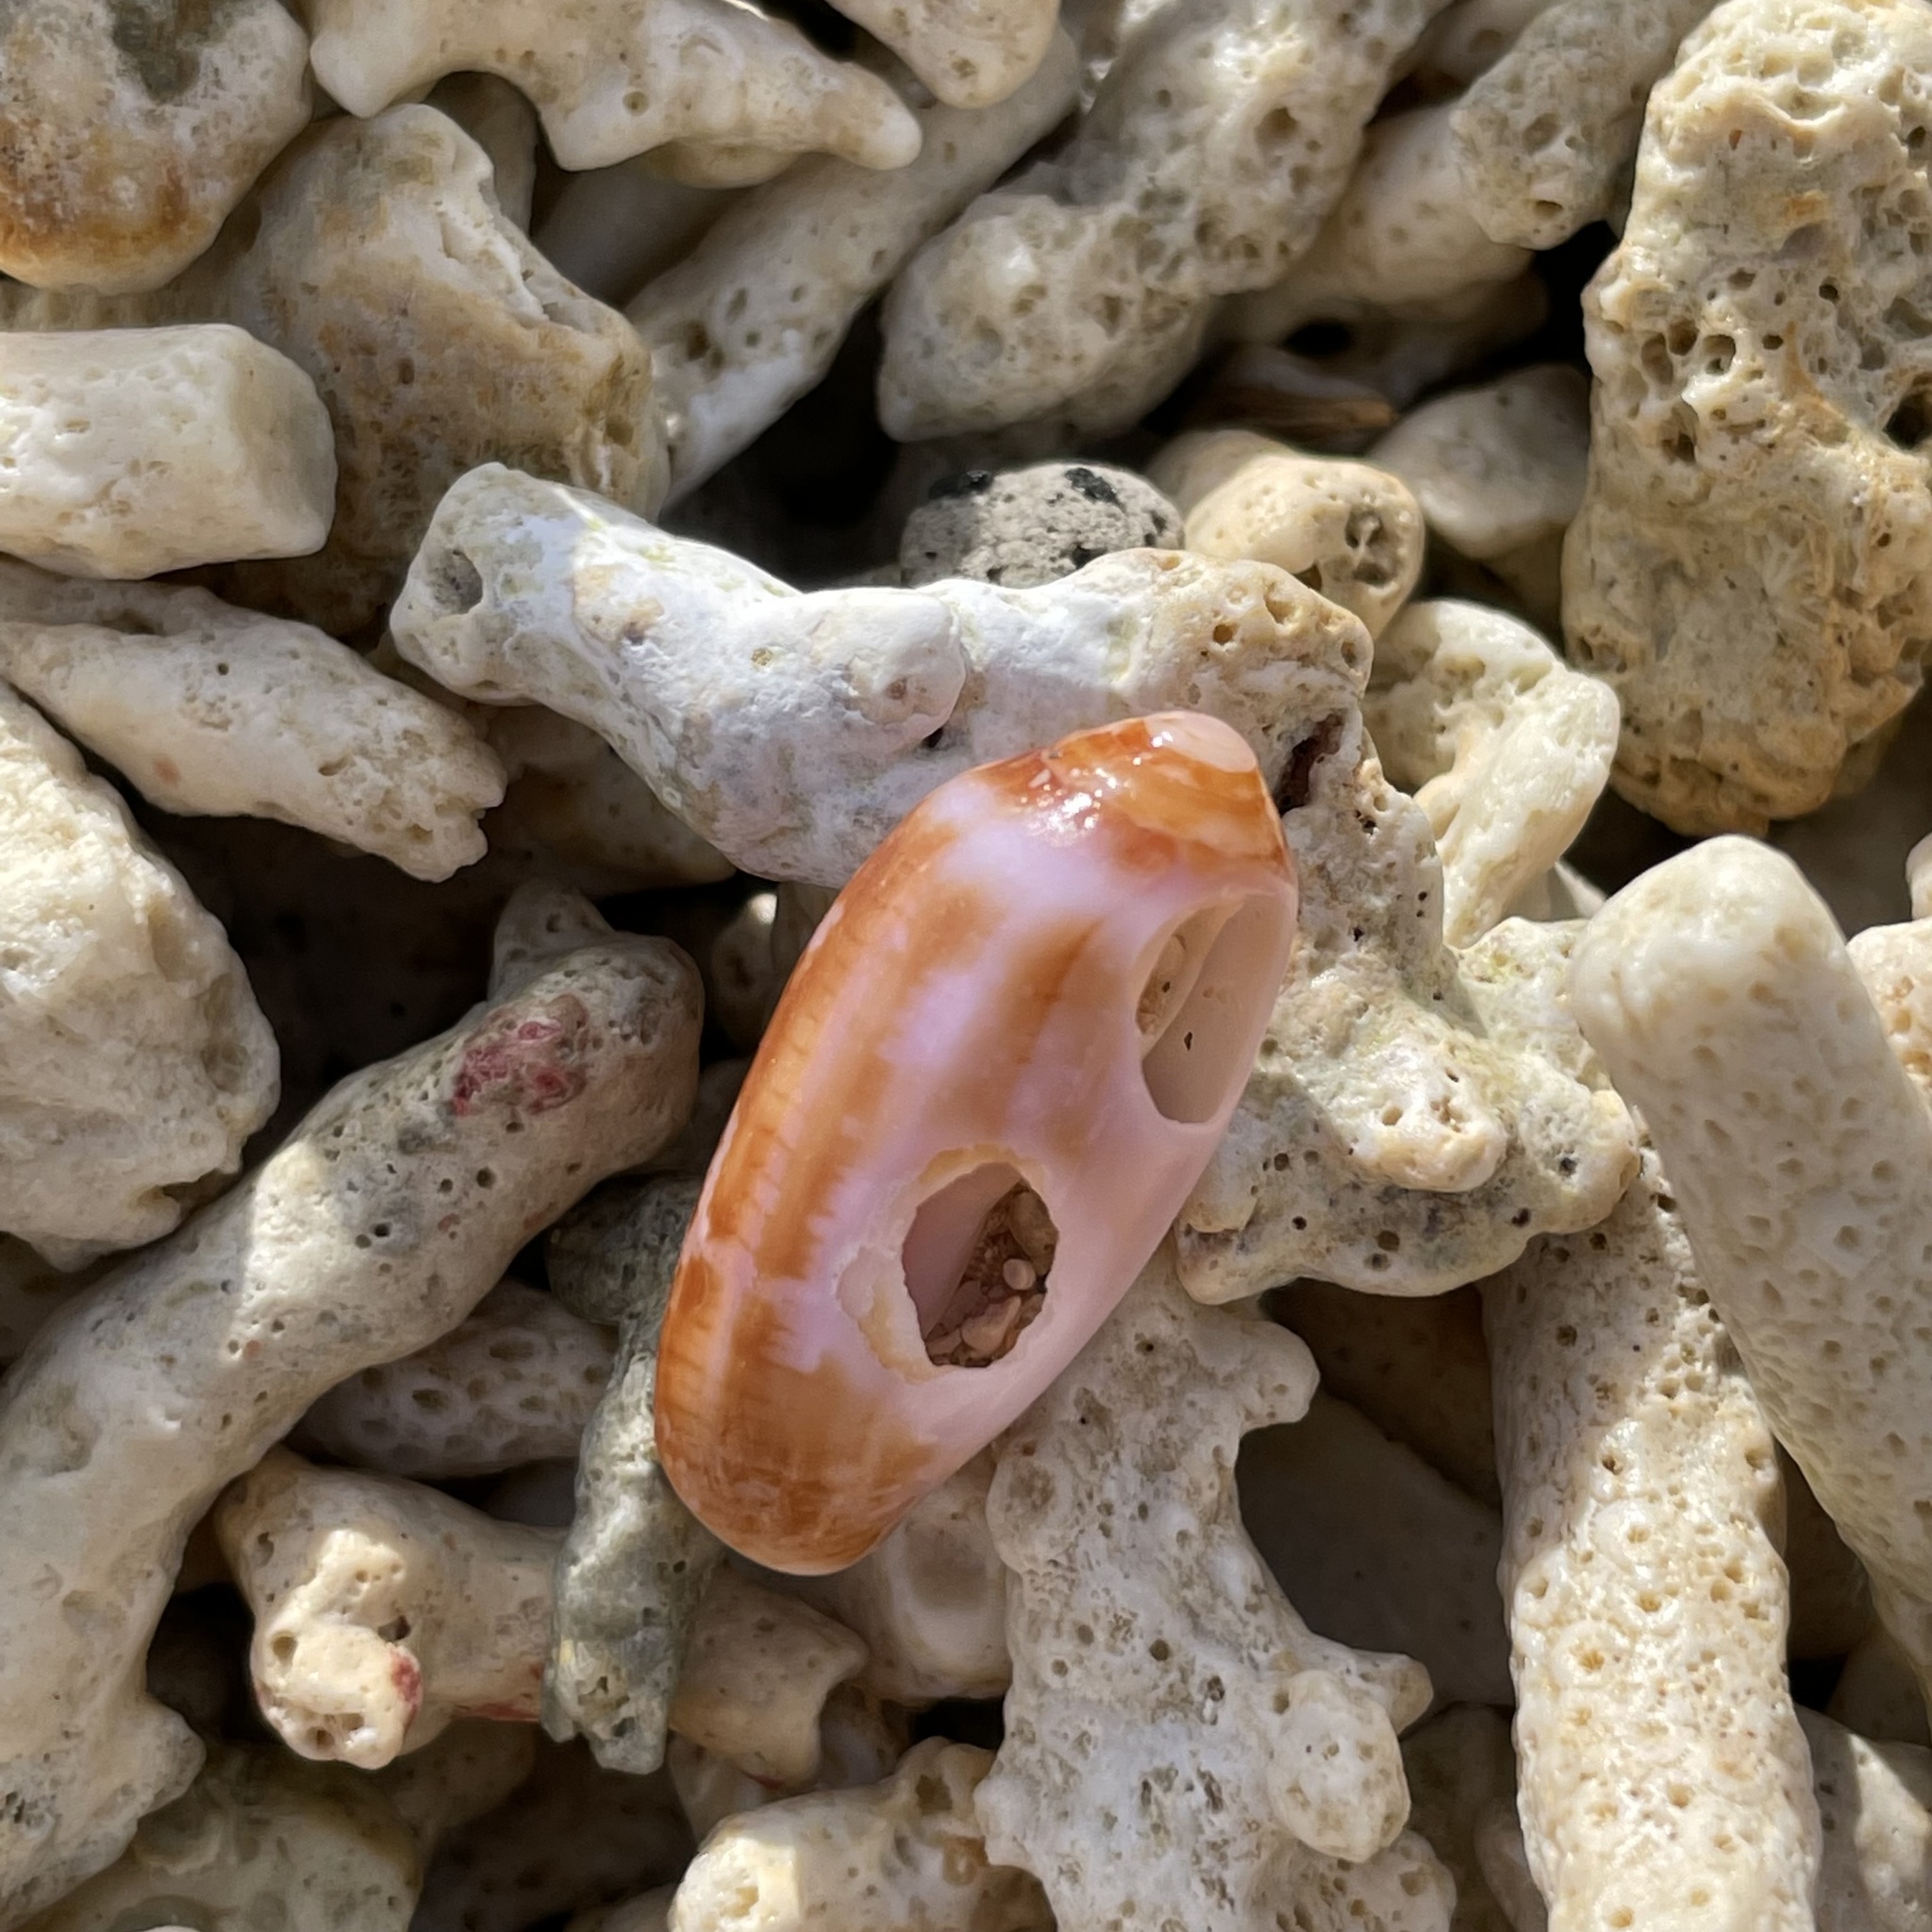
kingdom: Animalia
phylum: Mollusca
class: Gastropoda
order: Neogastropoda
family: Conidae
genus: Conus
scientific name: Conus tulipa
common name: Tulip cone
